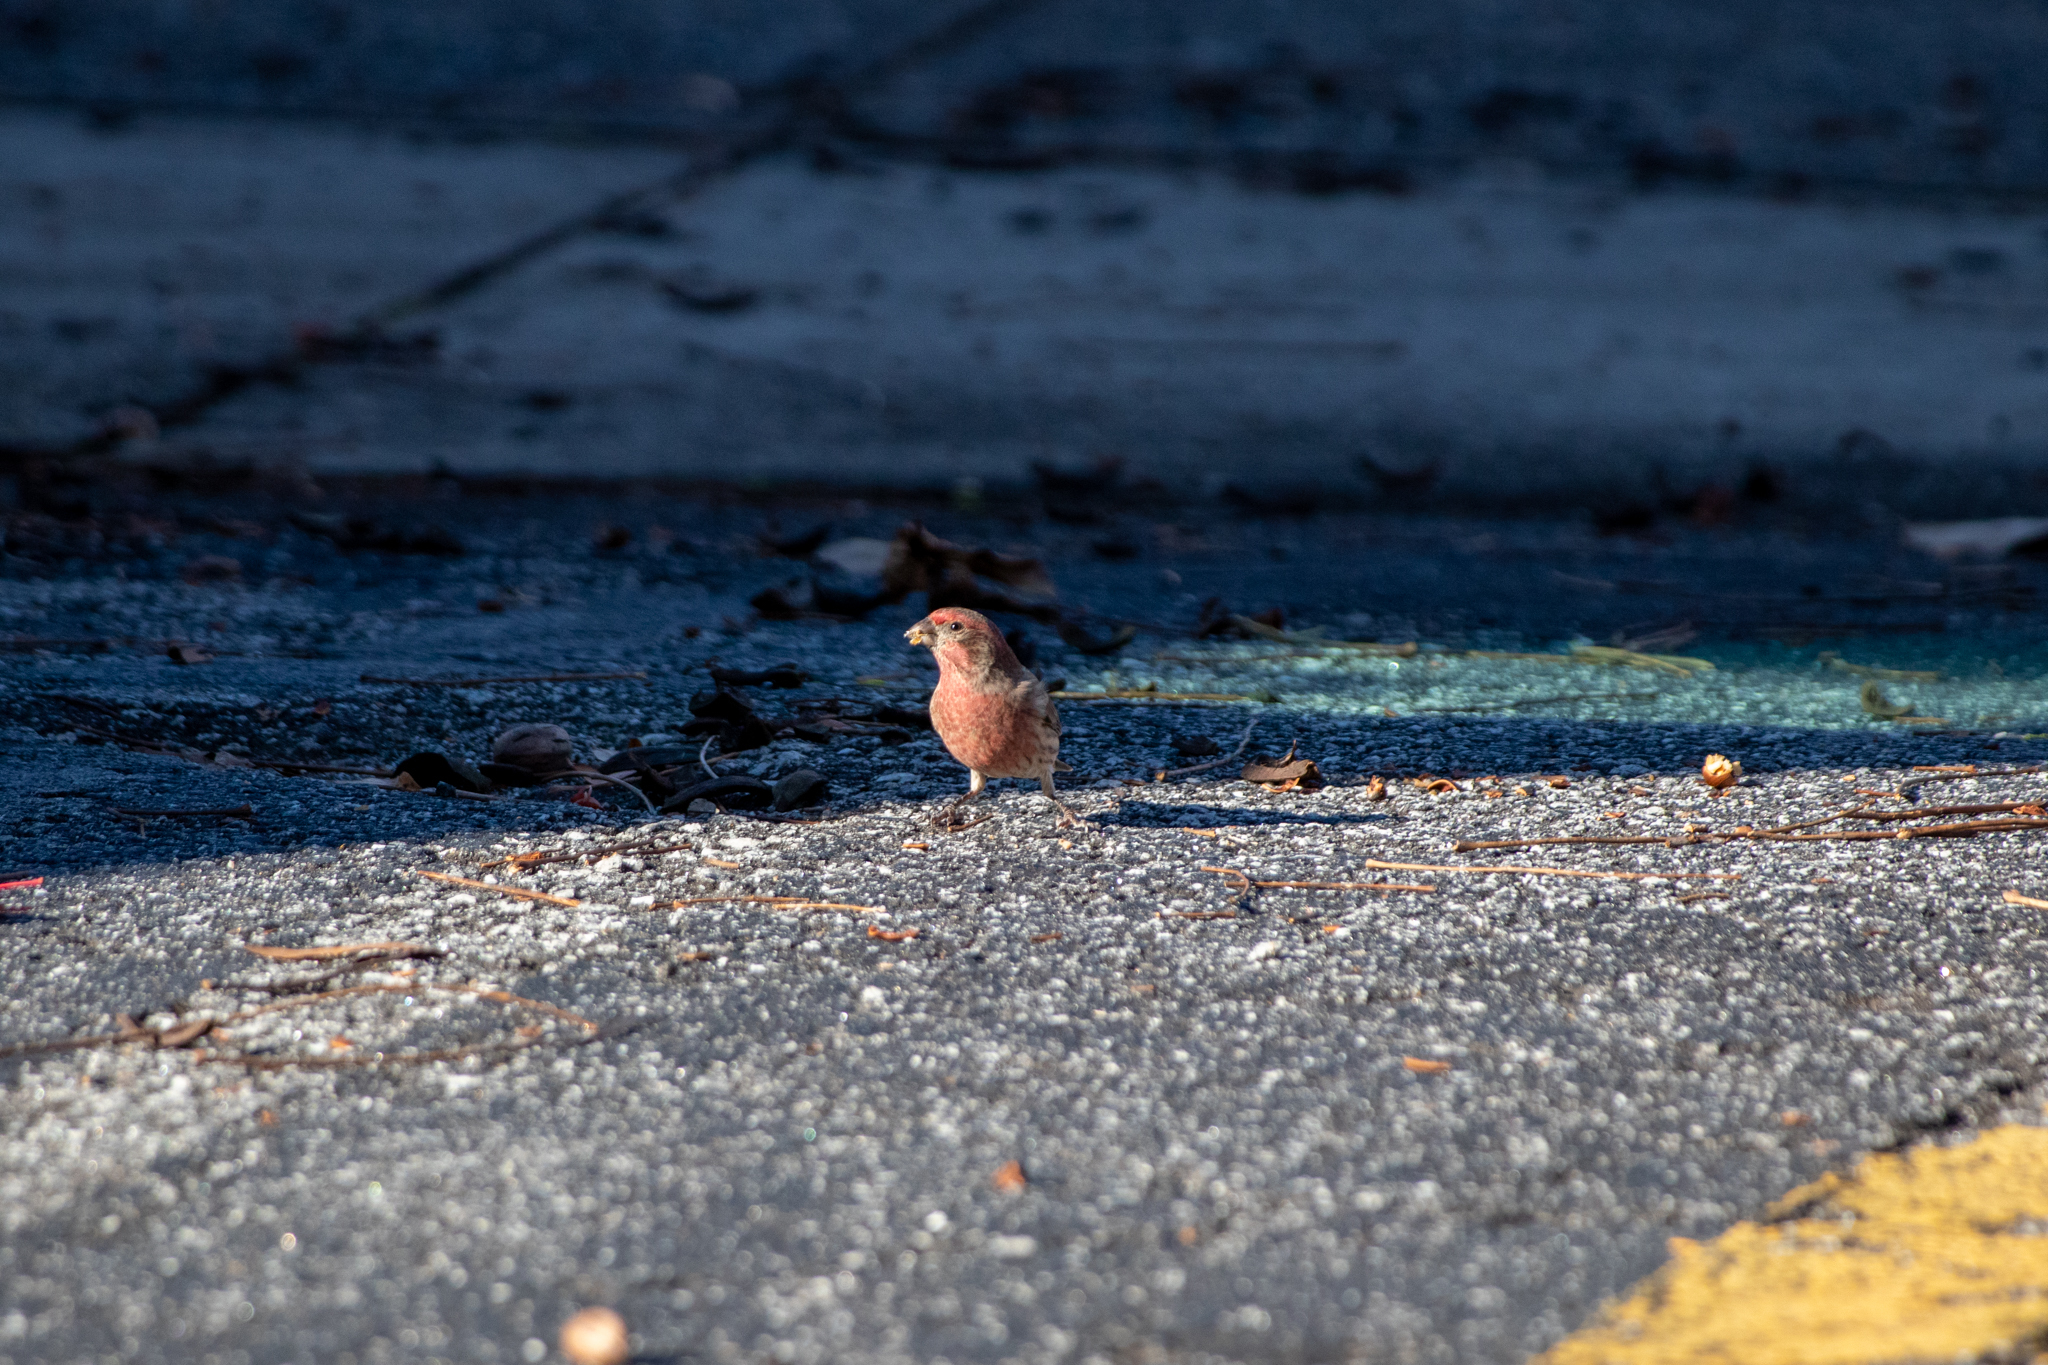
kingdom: Animalia
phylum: Chordata
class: Aves
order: Passeriformes
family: Fringillidae
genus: Haemorhous
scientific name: Haemorhous mexicanus
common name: House finch
